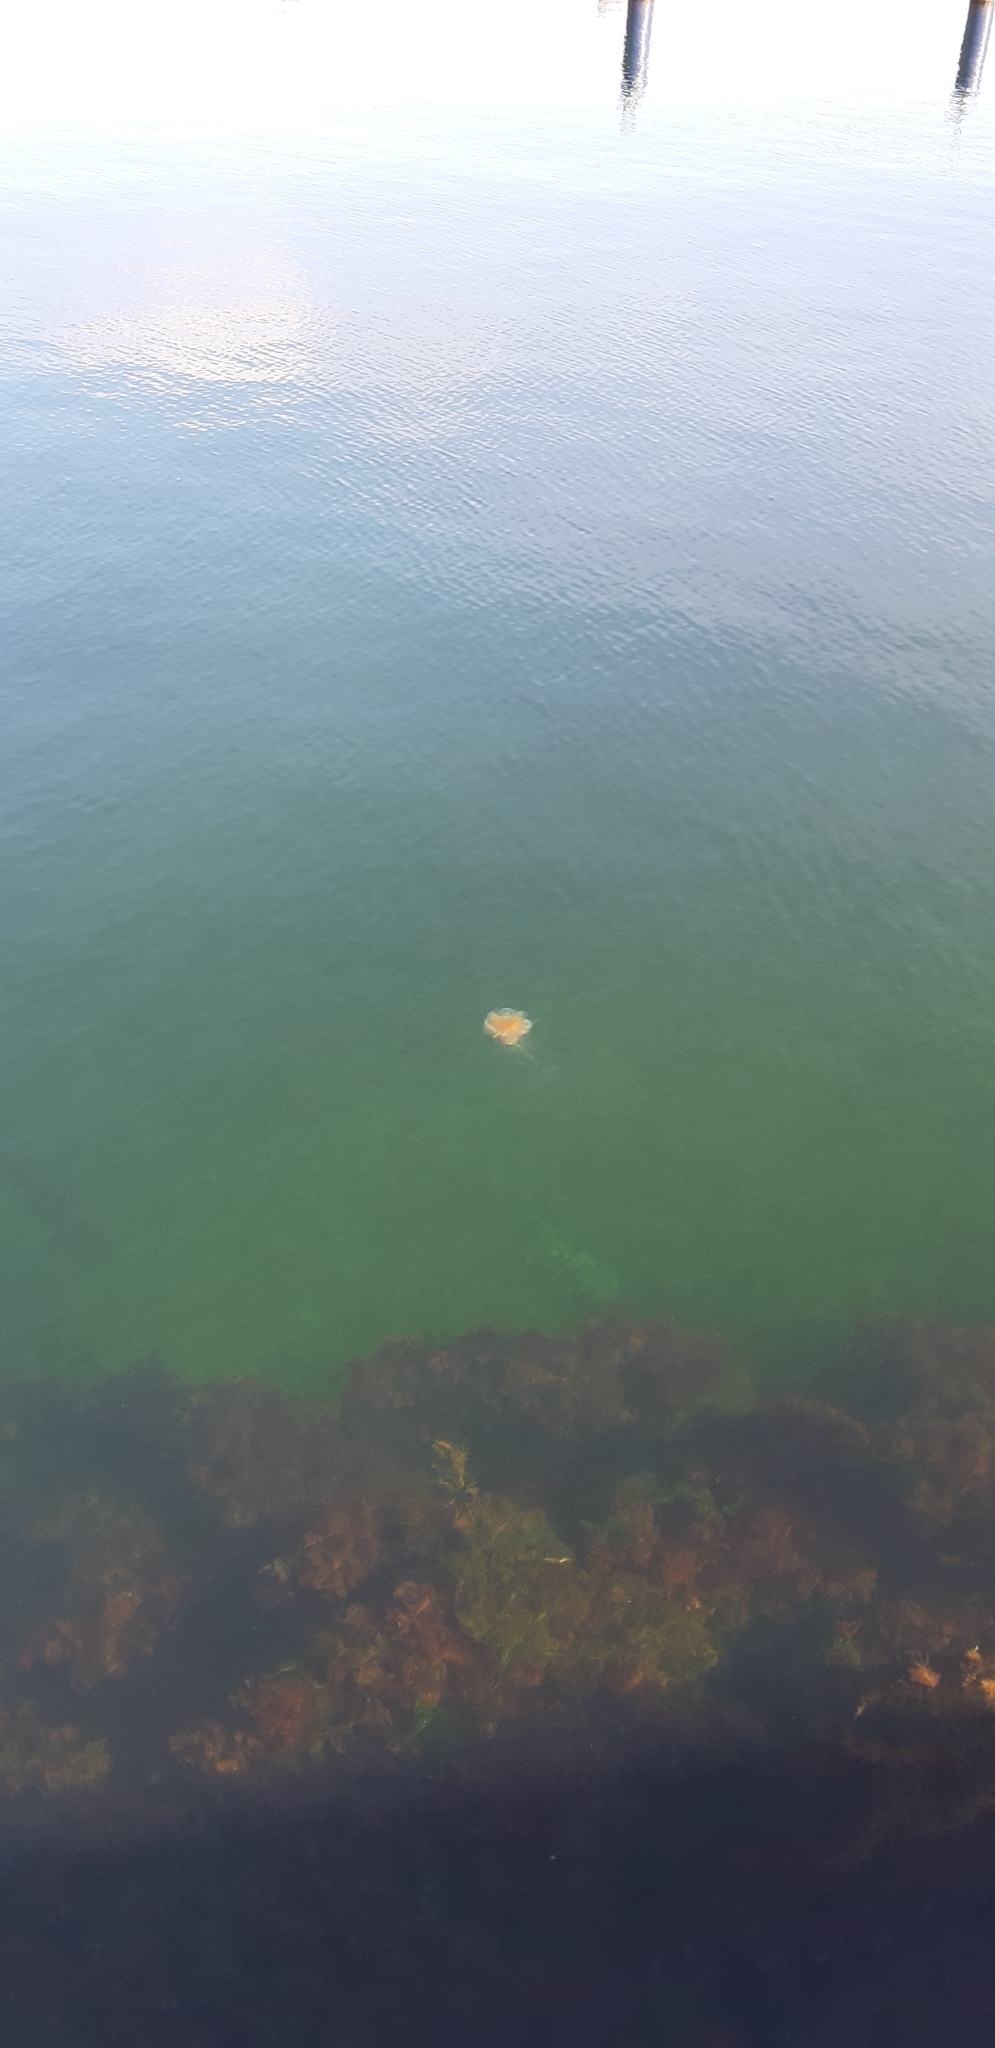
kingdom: Animalia
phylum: Cnidaria
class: Scyphozoa
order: Semaeostomeae
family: Cyaneidae
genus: Cyanea
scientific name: Cyanea capillata
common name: Lion's mane jellyfish
